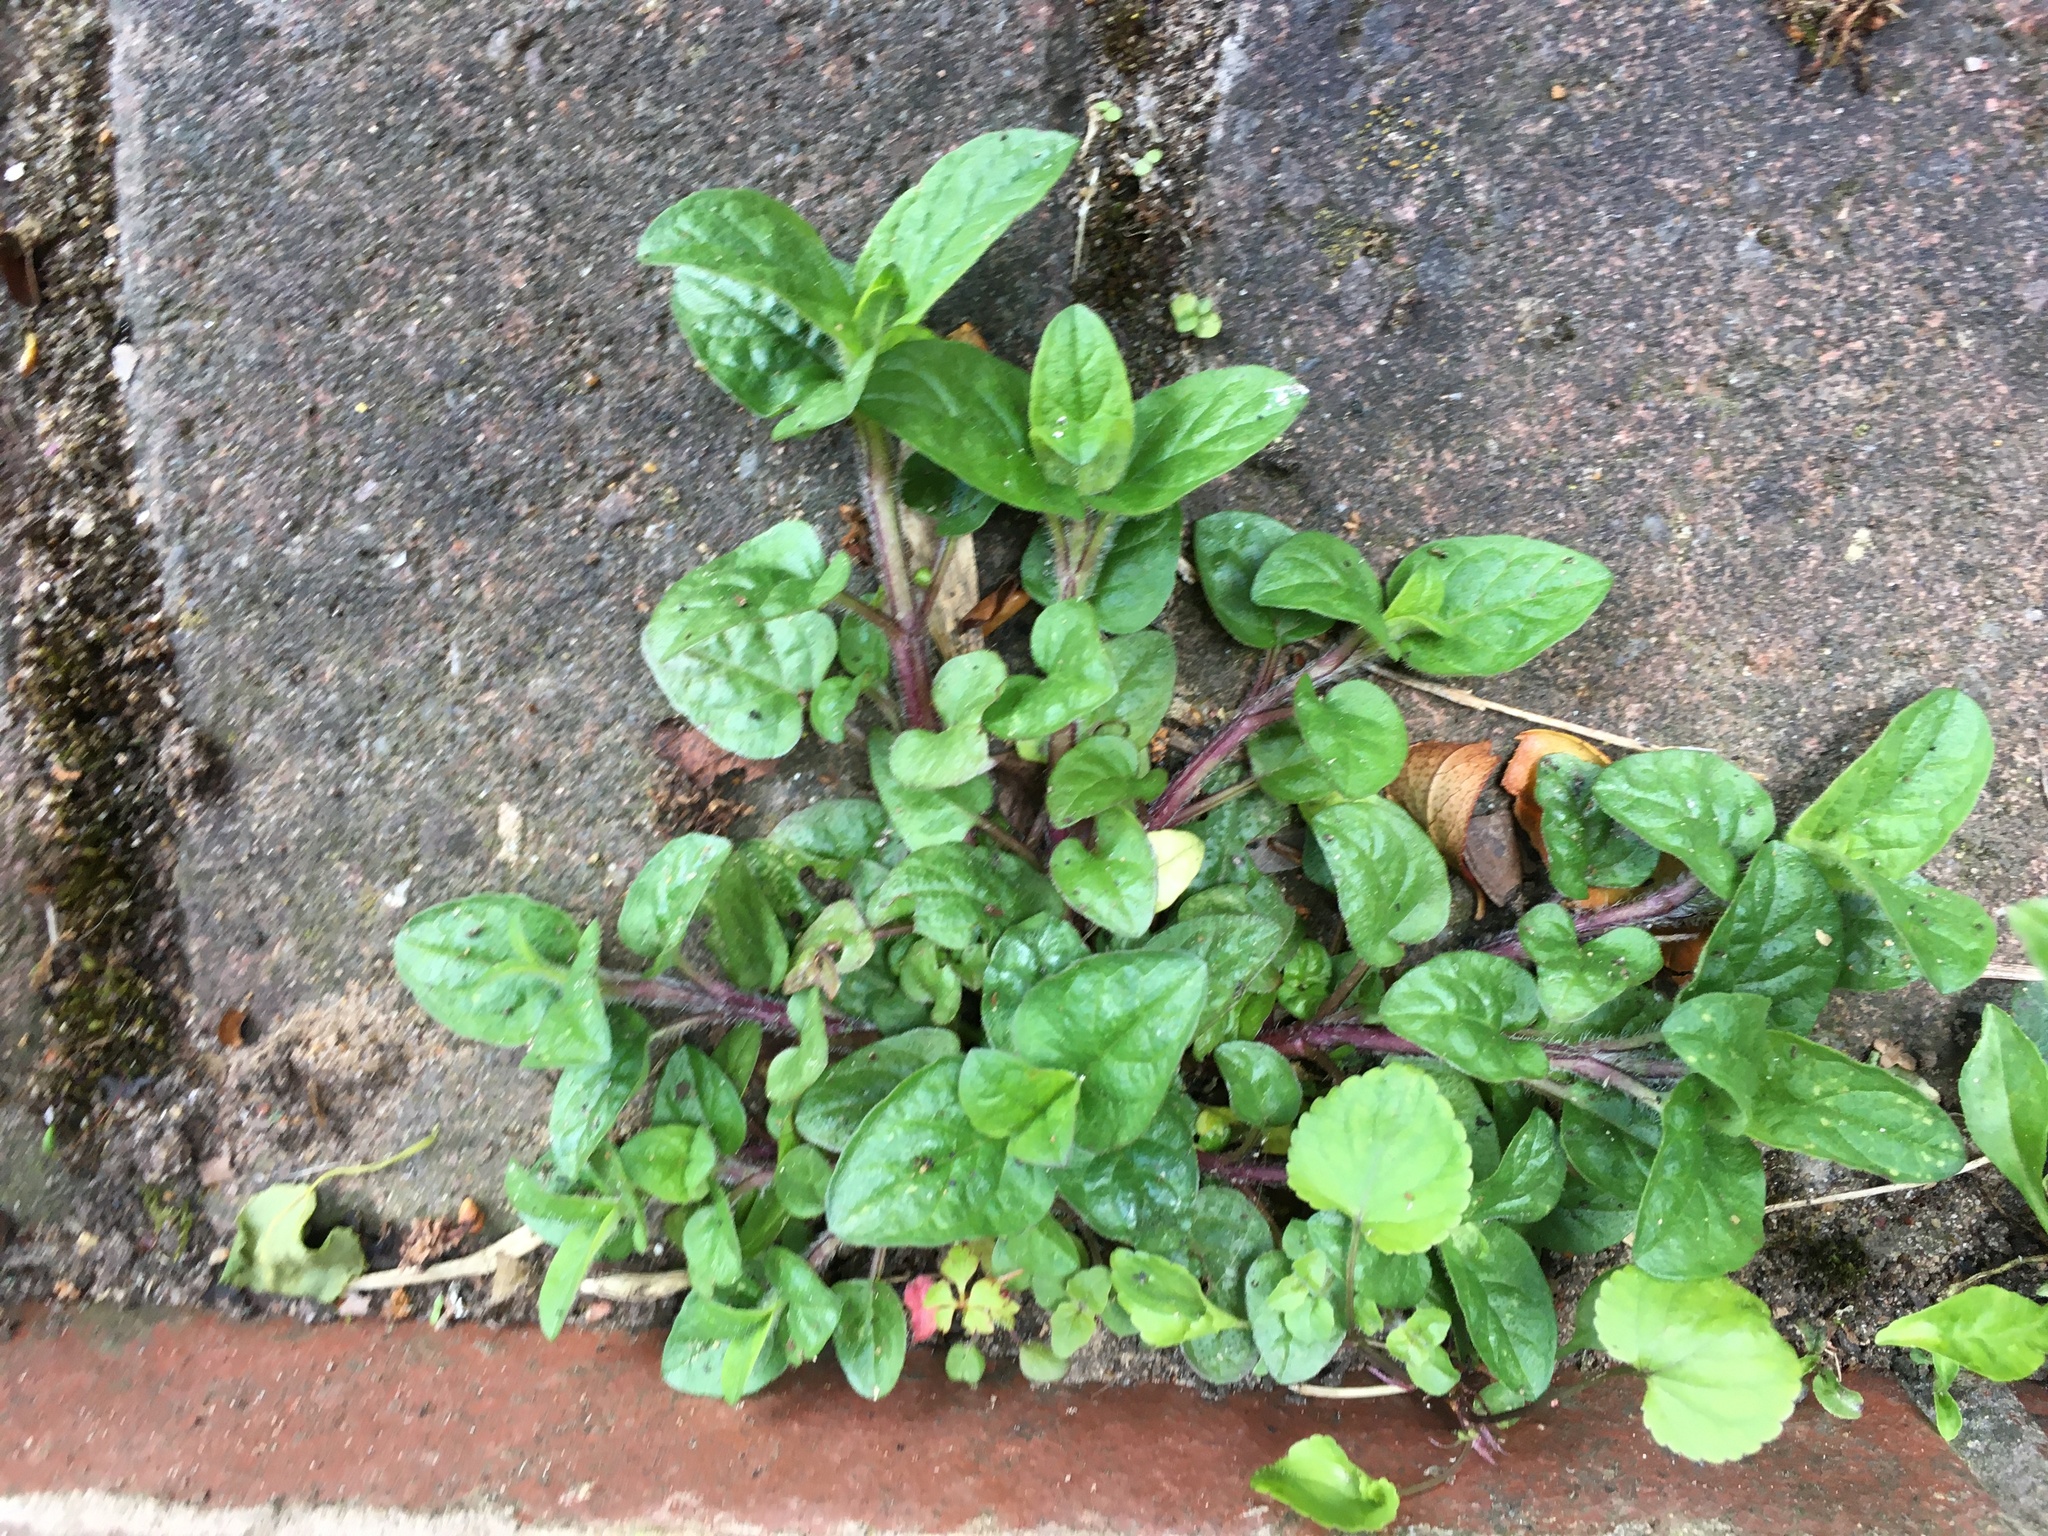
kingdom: Plantae
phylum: Tracheophyta
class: Magnoliopsida
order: Lamiales
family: Lamiaceae
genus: Prunella
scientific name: Prunella vulgaris
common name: Heal-all
